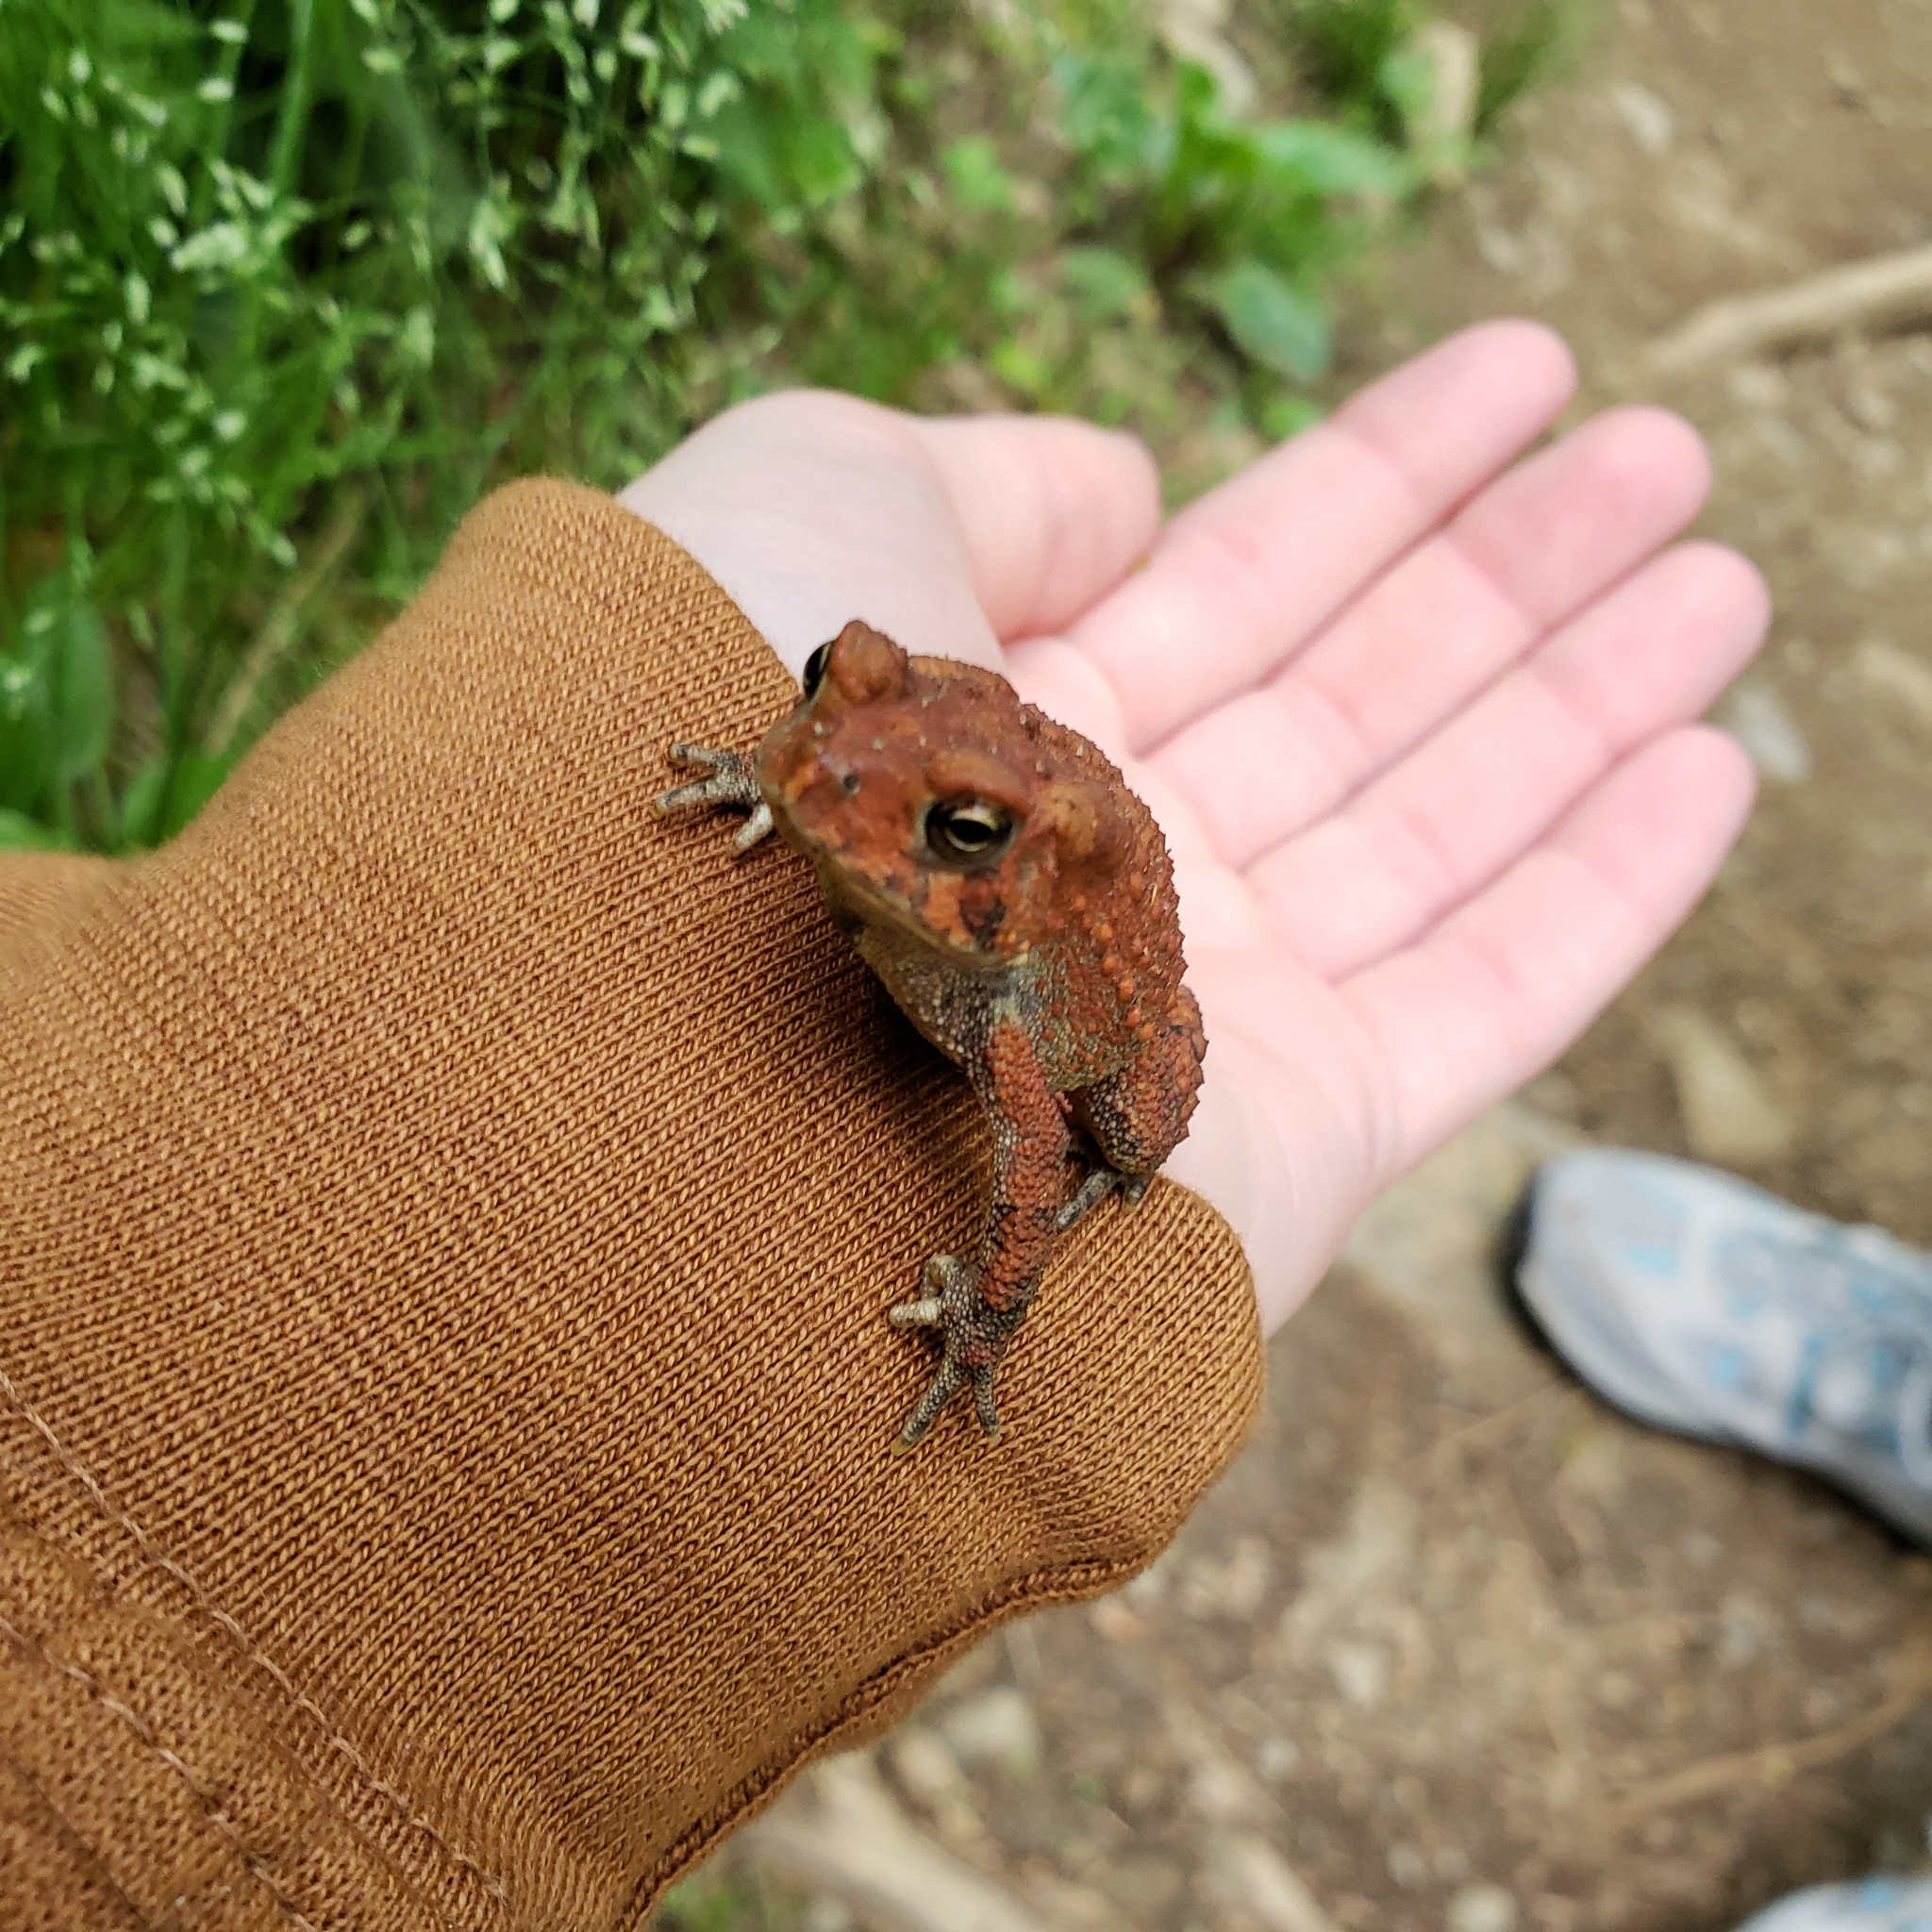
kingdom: Animalia
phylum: Chordata
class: Amphibia
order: Anura
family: Bufonidae
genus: Anaxyrus
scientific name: Anaxyrus americanus
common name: American toad
